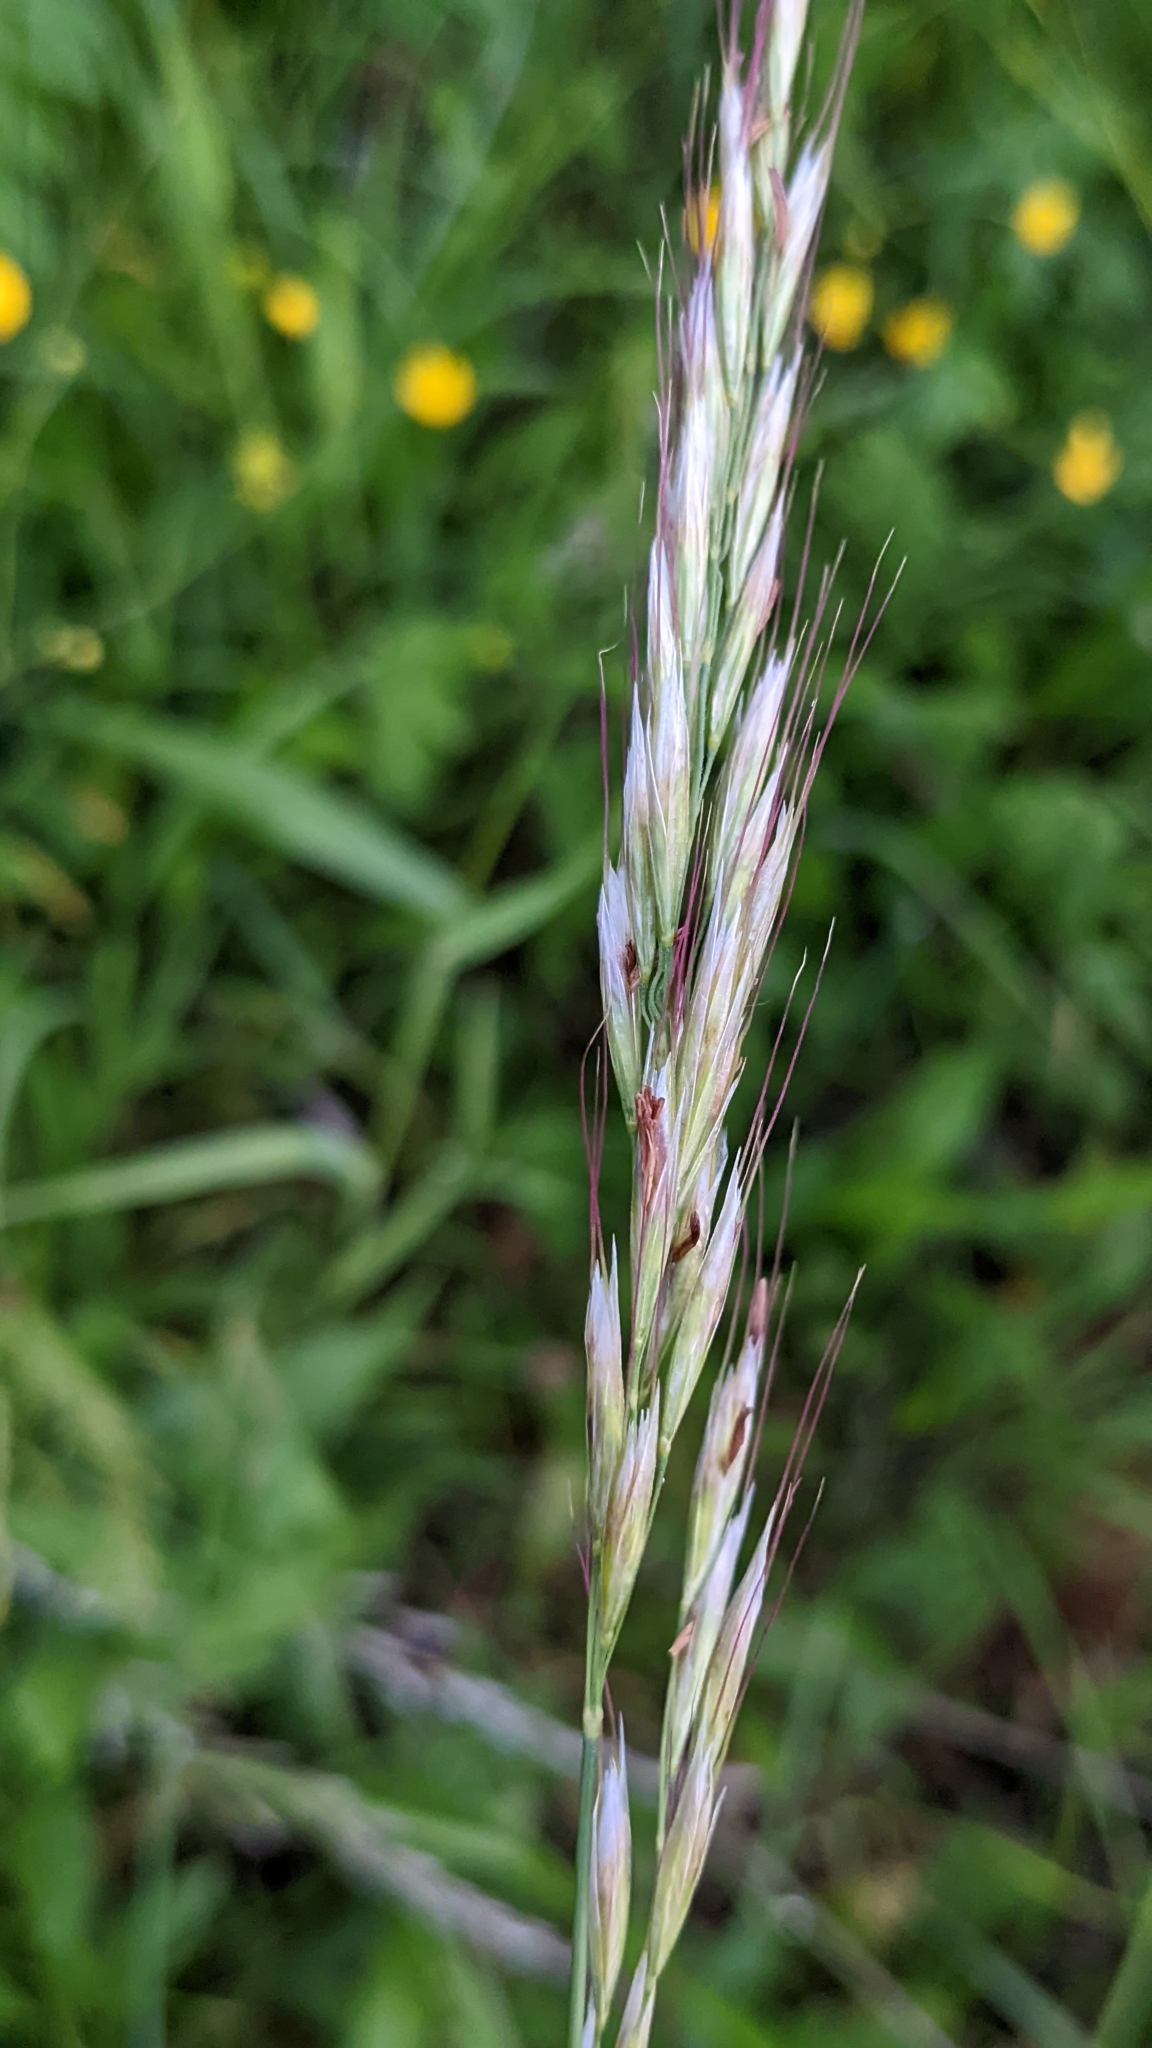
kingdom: Plantae
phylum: Tracheophyta
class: Liliopsida
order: Poales
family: Poaceae
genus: Avenula
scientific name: Avenula pubescens
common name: Downy alpine oatgrass
